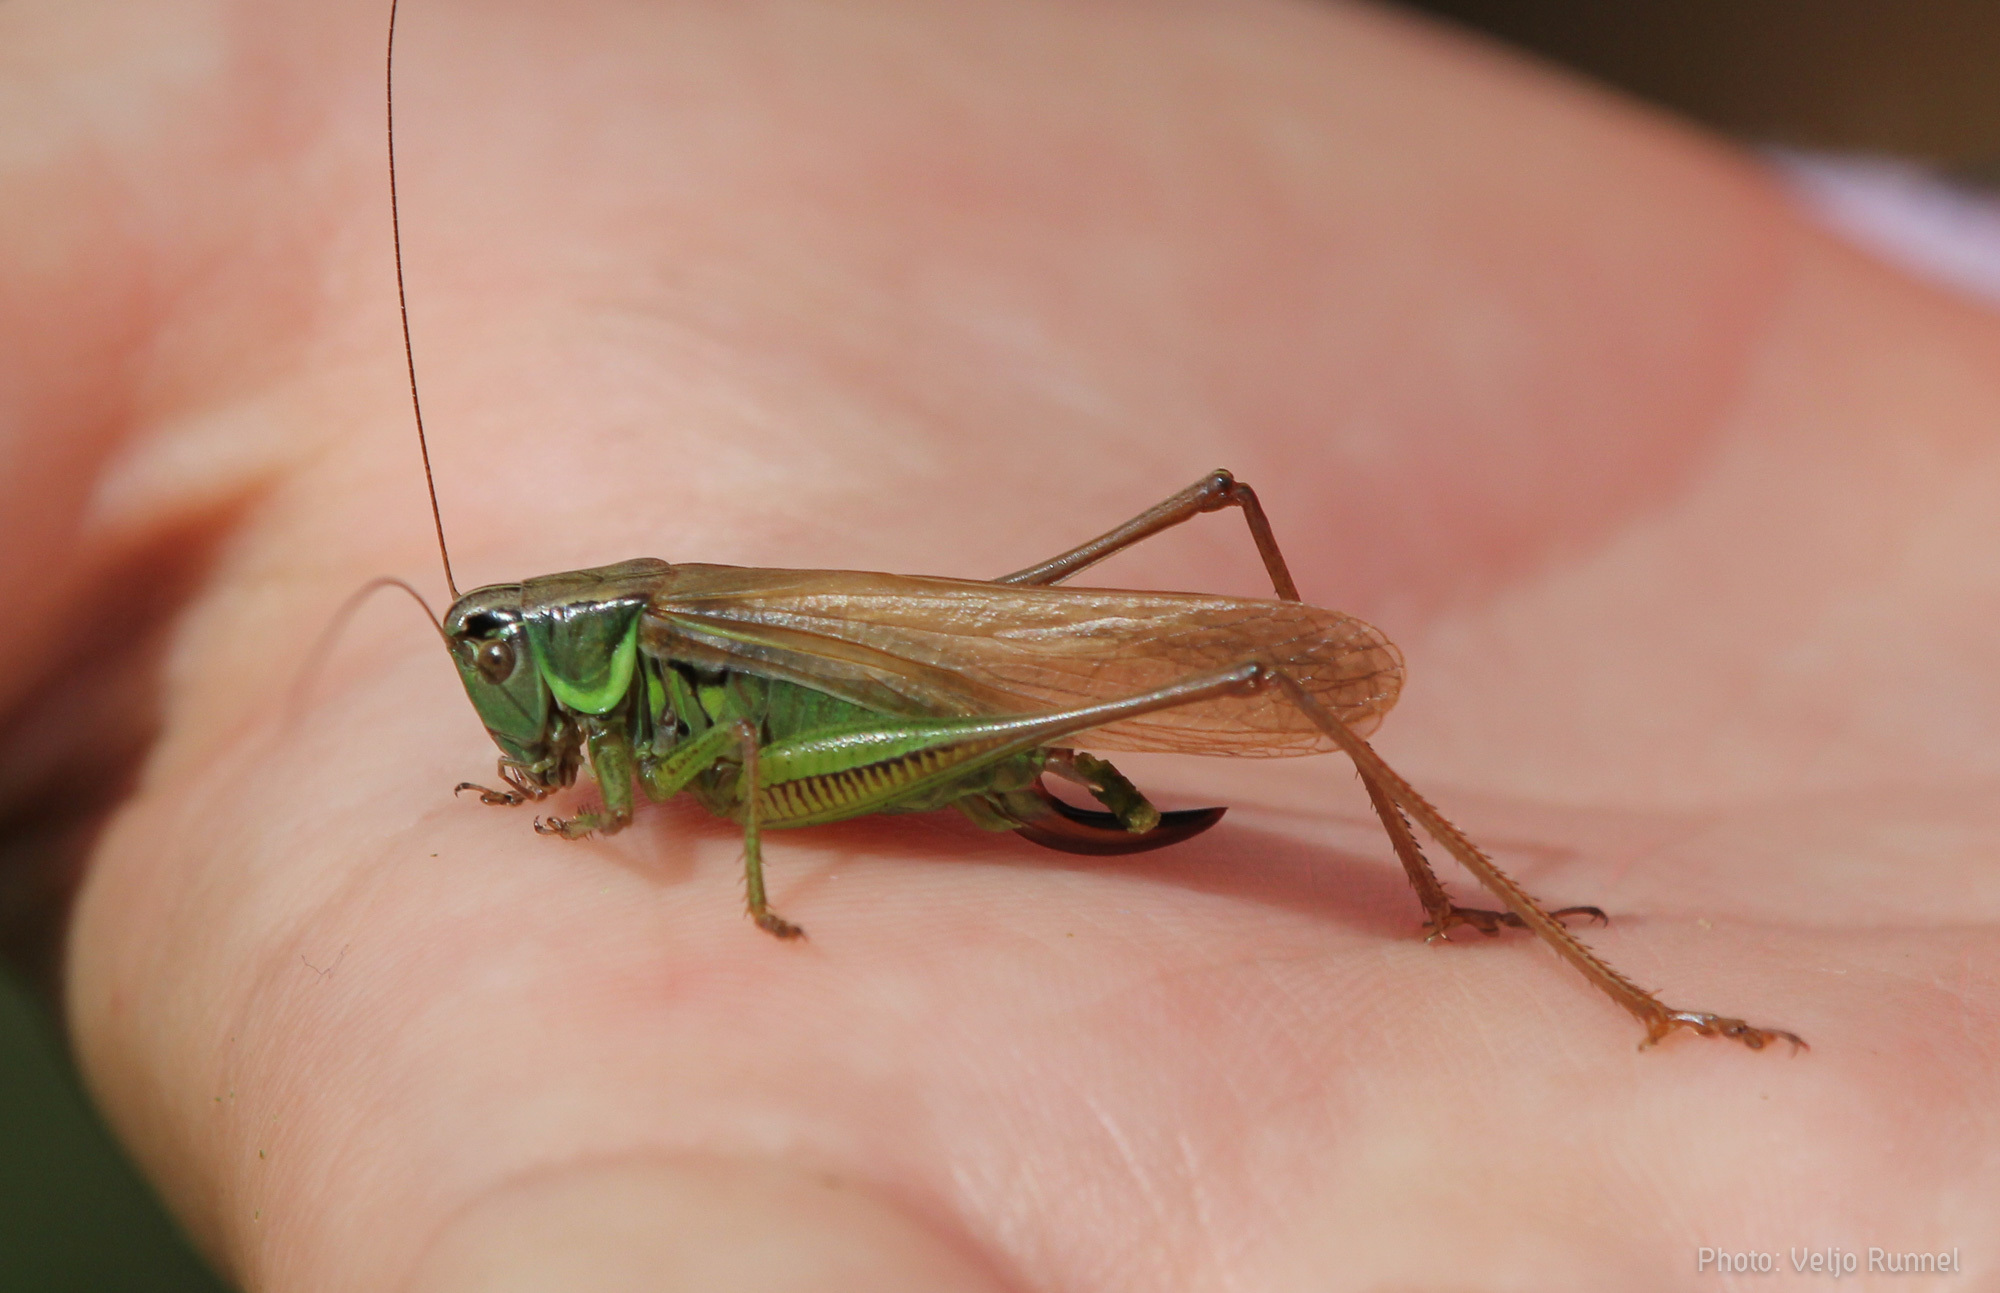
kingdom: Animalia
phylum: Arthropoda
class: Insecta
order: Orthoptera
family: Tettigoniidae
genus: Roeseliana
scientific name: Roeseliana roeselii
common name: Roesel's bush cricket
